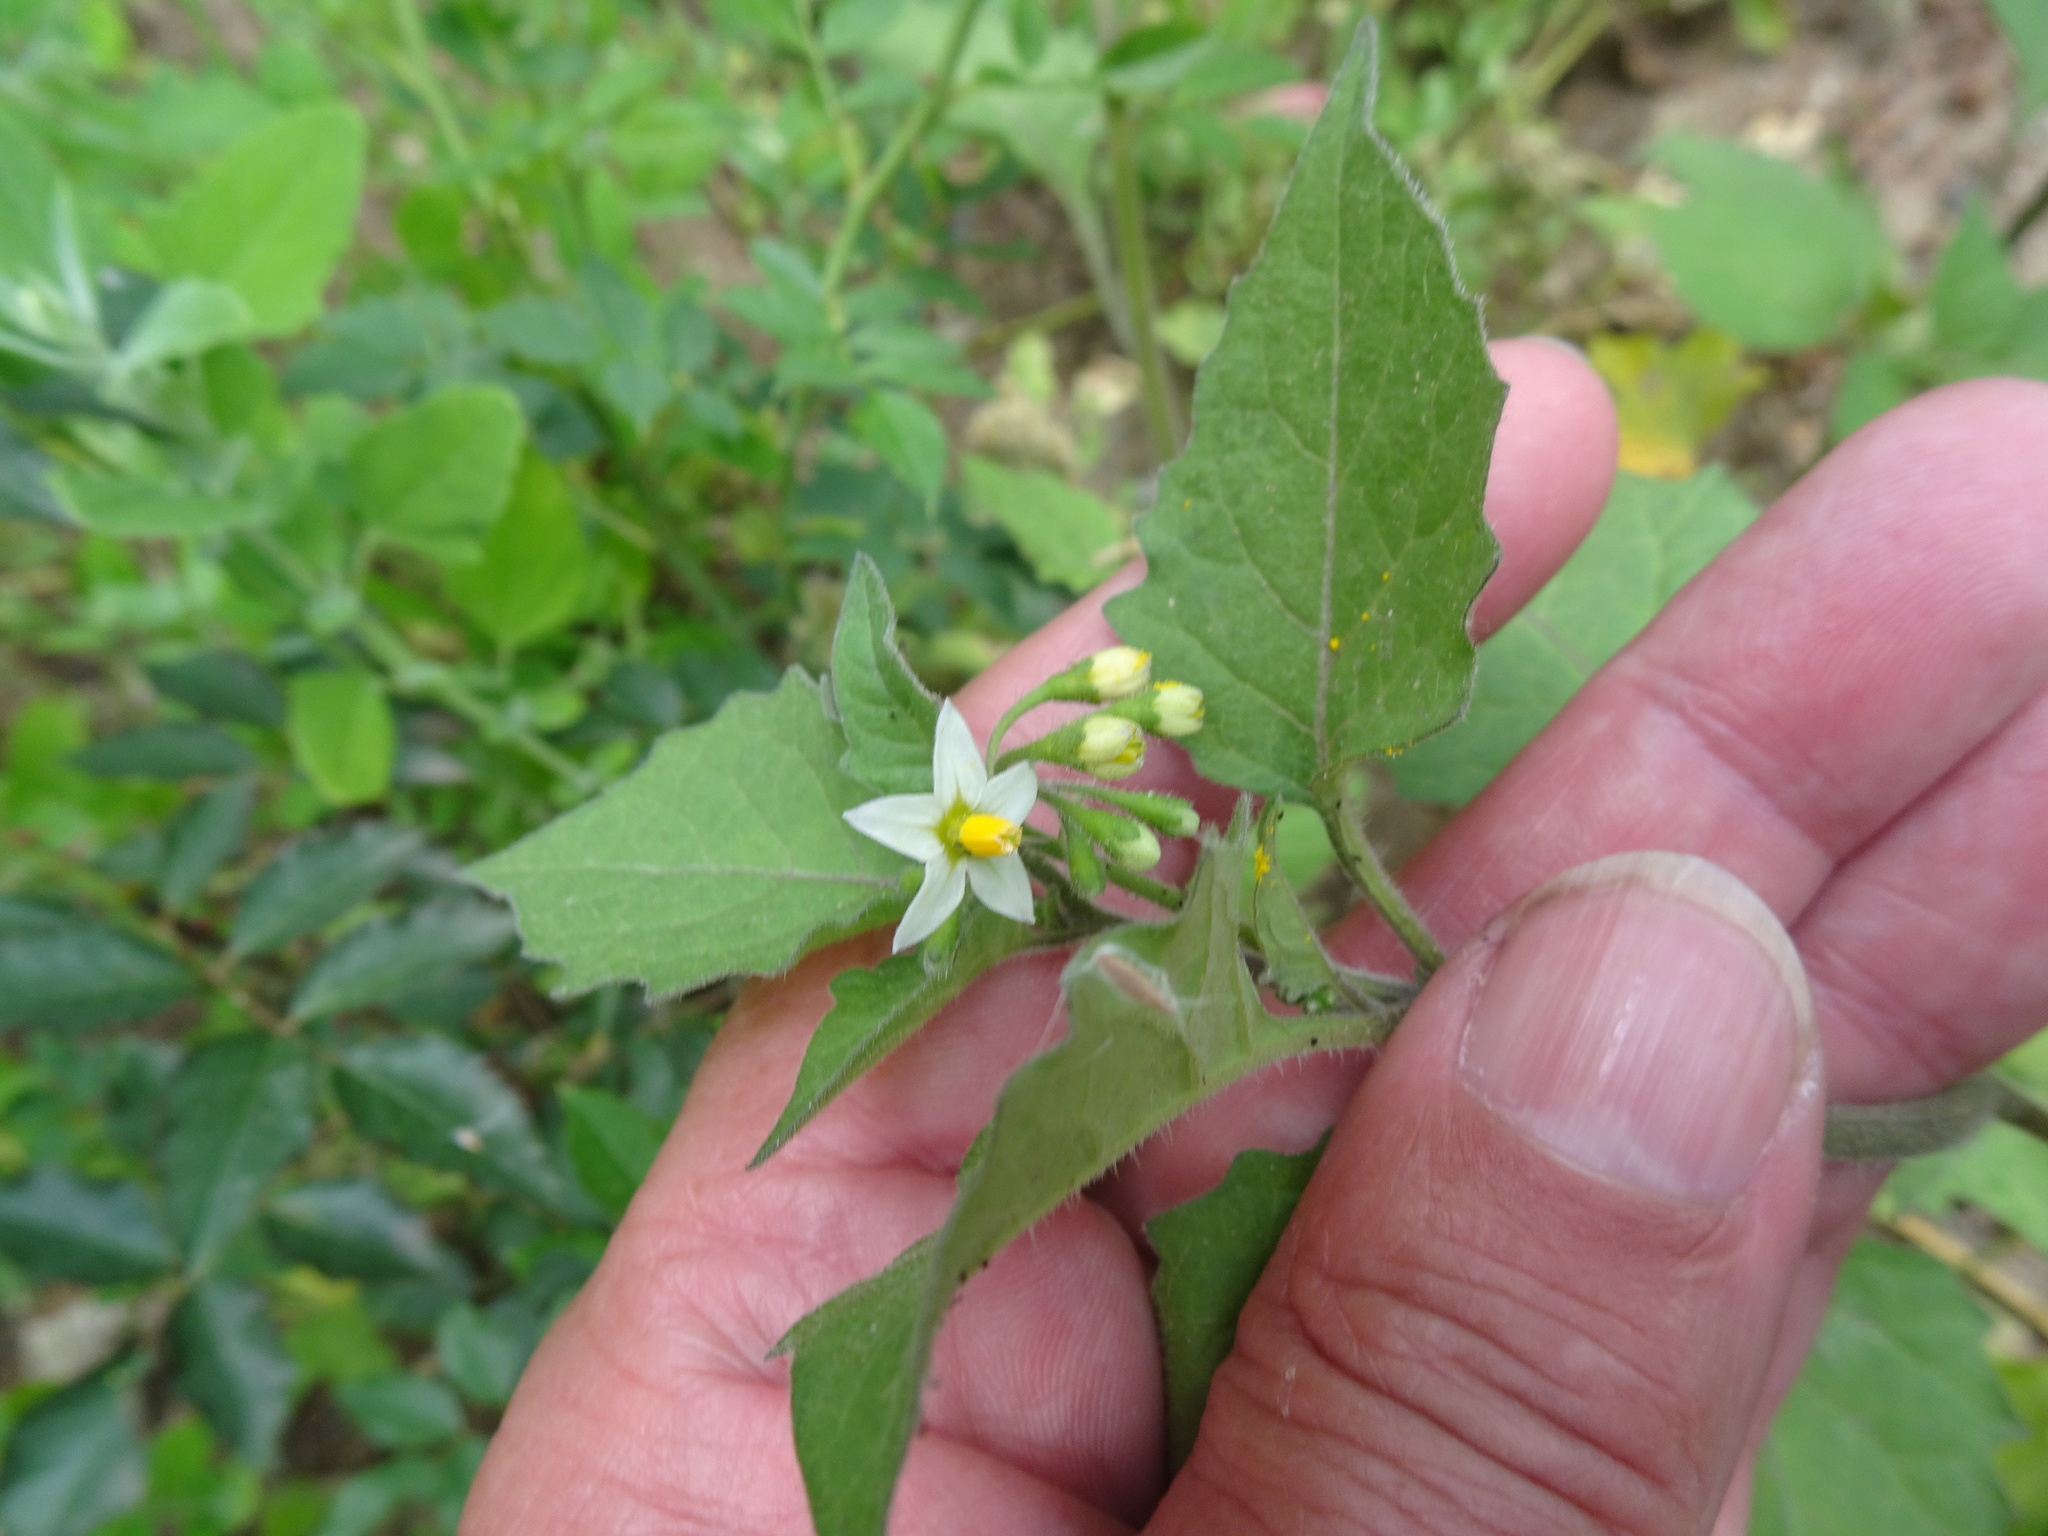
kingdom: Plantae
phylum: Tracheophyta
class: Magnoliopsida
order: Solanales
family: Solanaceae
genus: Solanum
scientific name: Solanum decipiens
